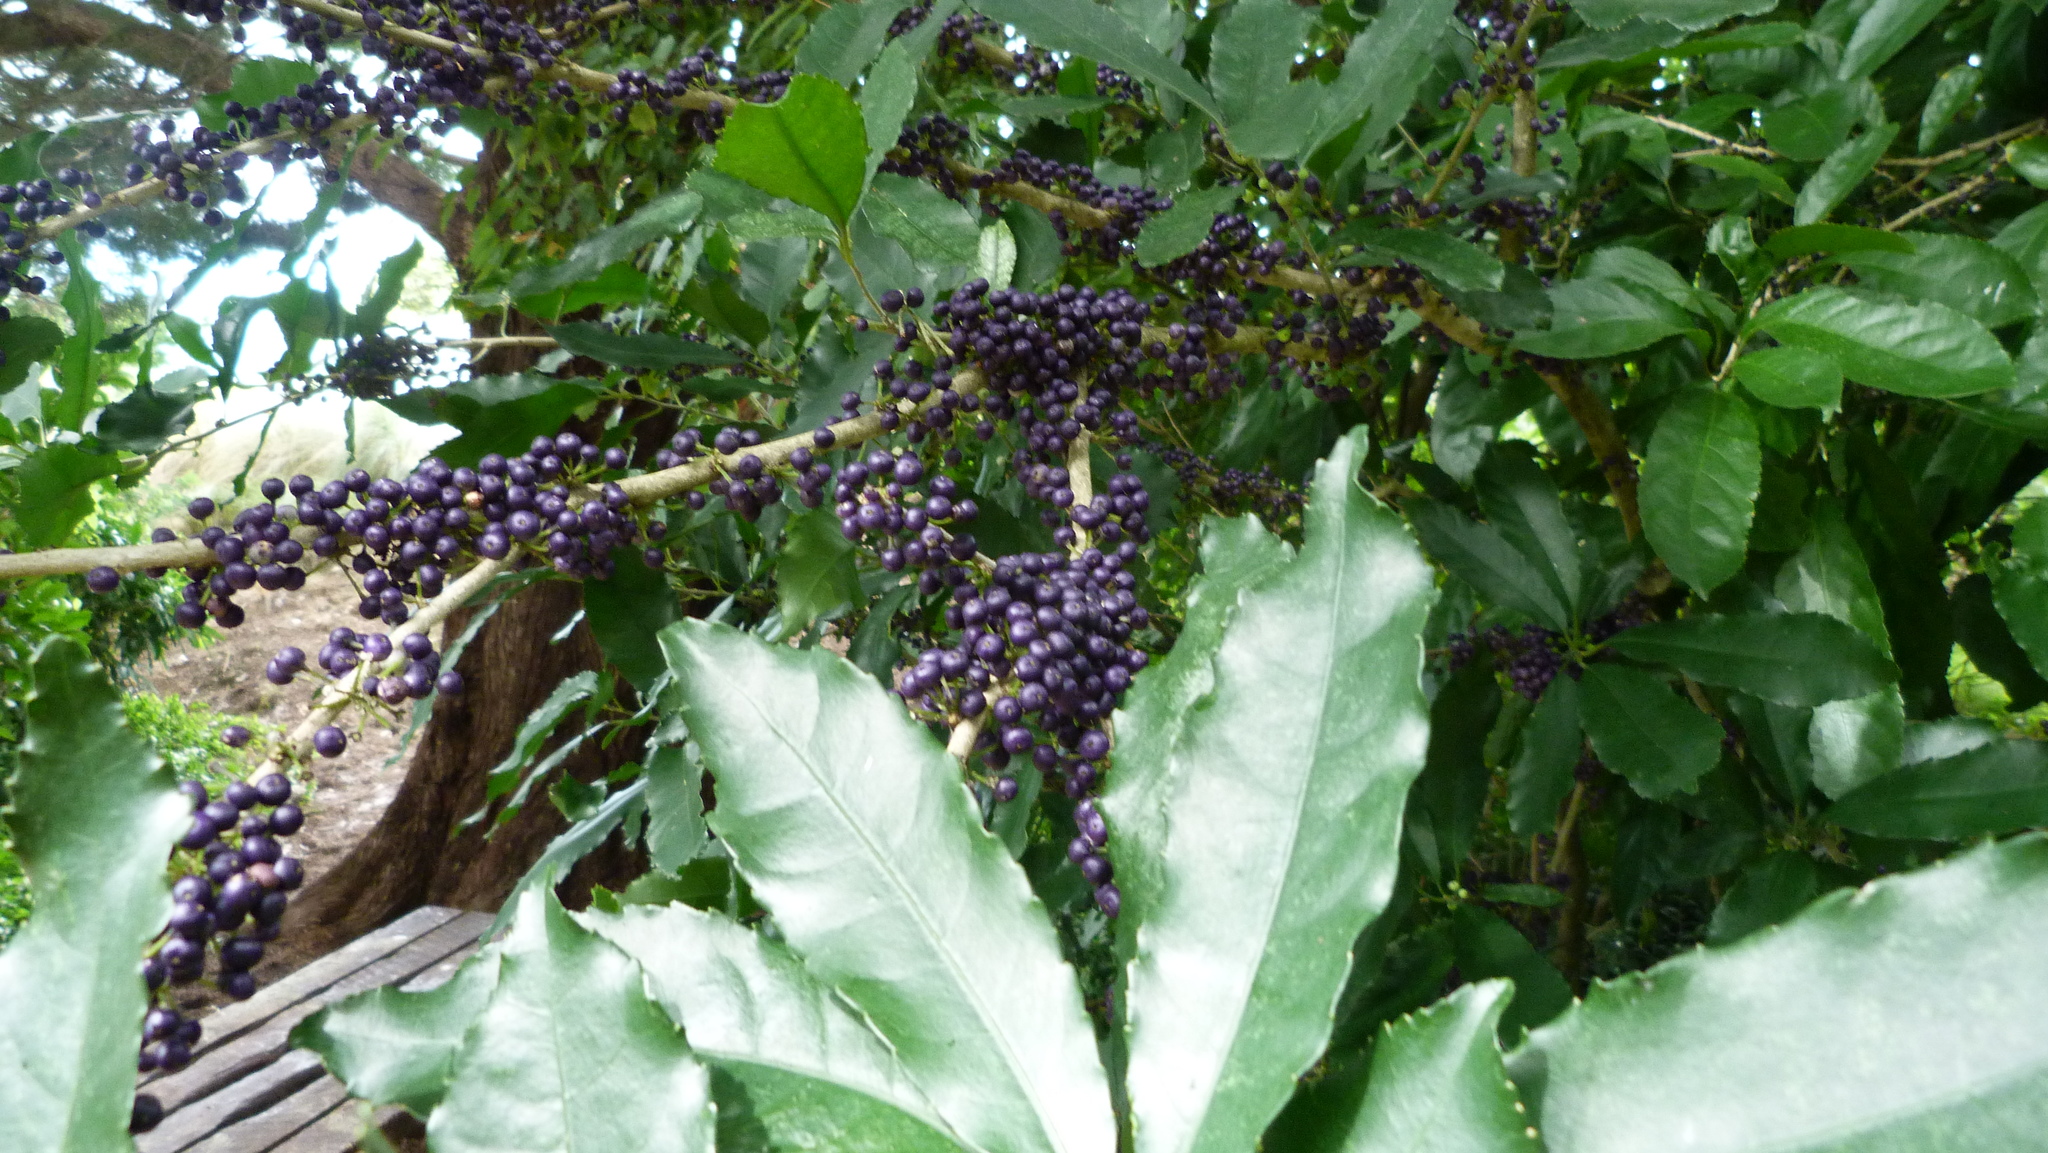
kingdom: Plantae
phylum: Tracheophyta
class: Magnoliopsida
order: Malpighiales
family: Violaceae
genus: Melicytus
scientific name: Melicytus ramiflorus
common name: Mahoe
